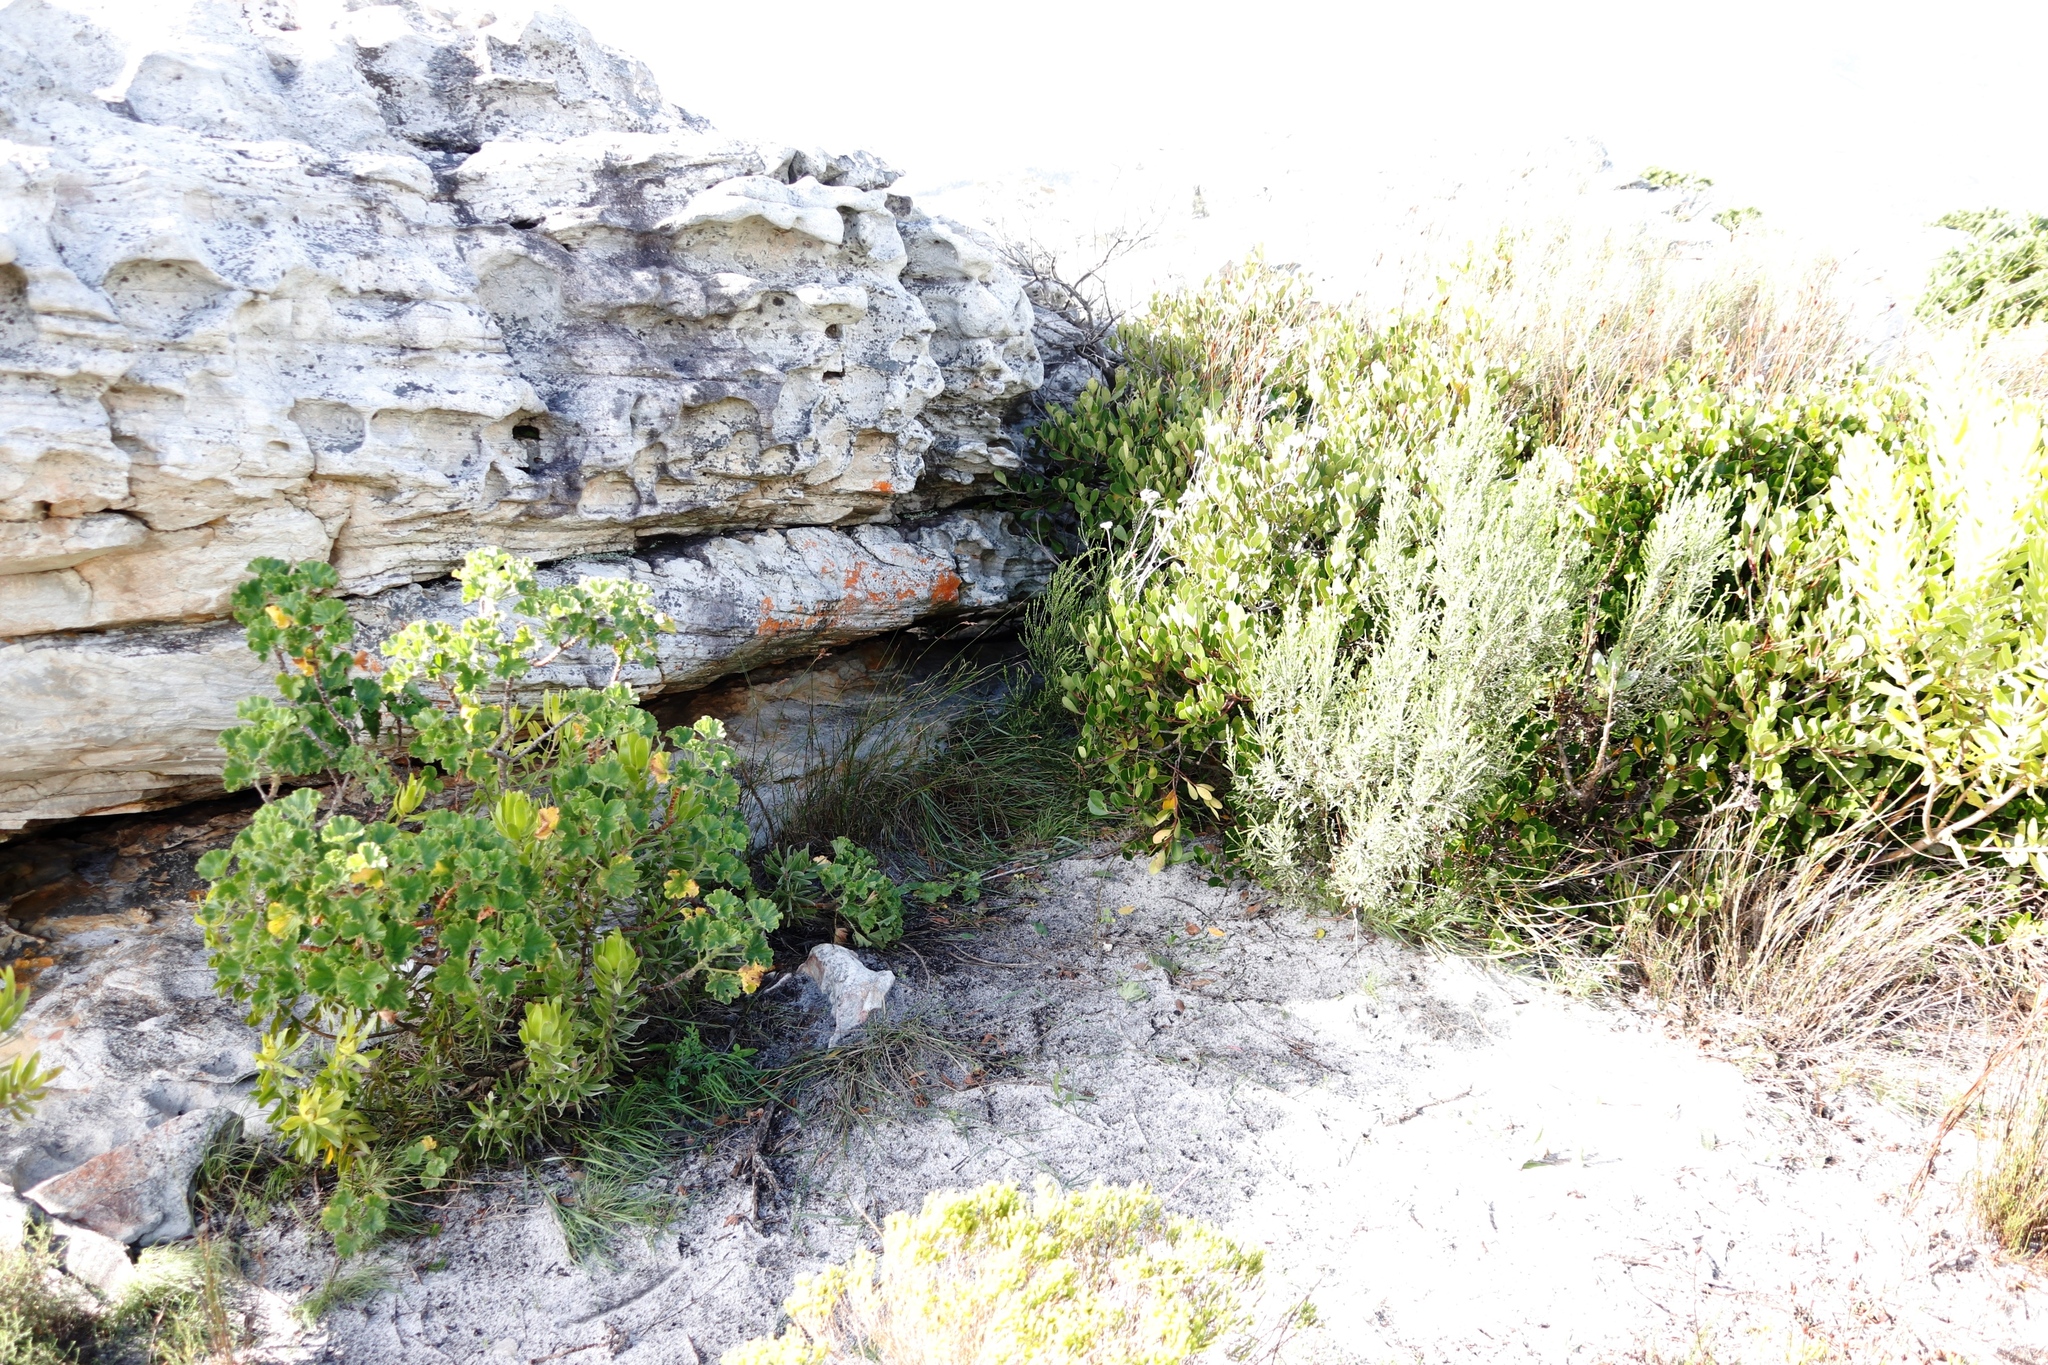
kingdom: Plantae
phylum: Tracheophyta
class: Magnoliopsida
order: Geraniales
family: Geraniaceae
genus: Pelargonium
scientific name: Pelargonium cucullatum
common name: Tree pelargonium
